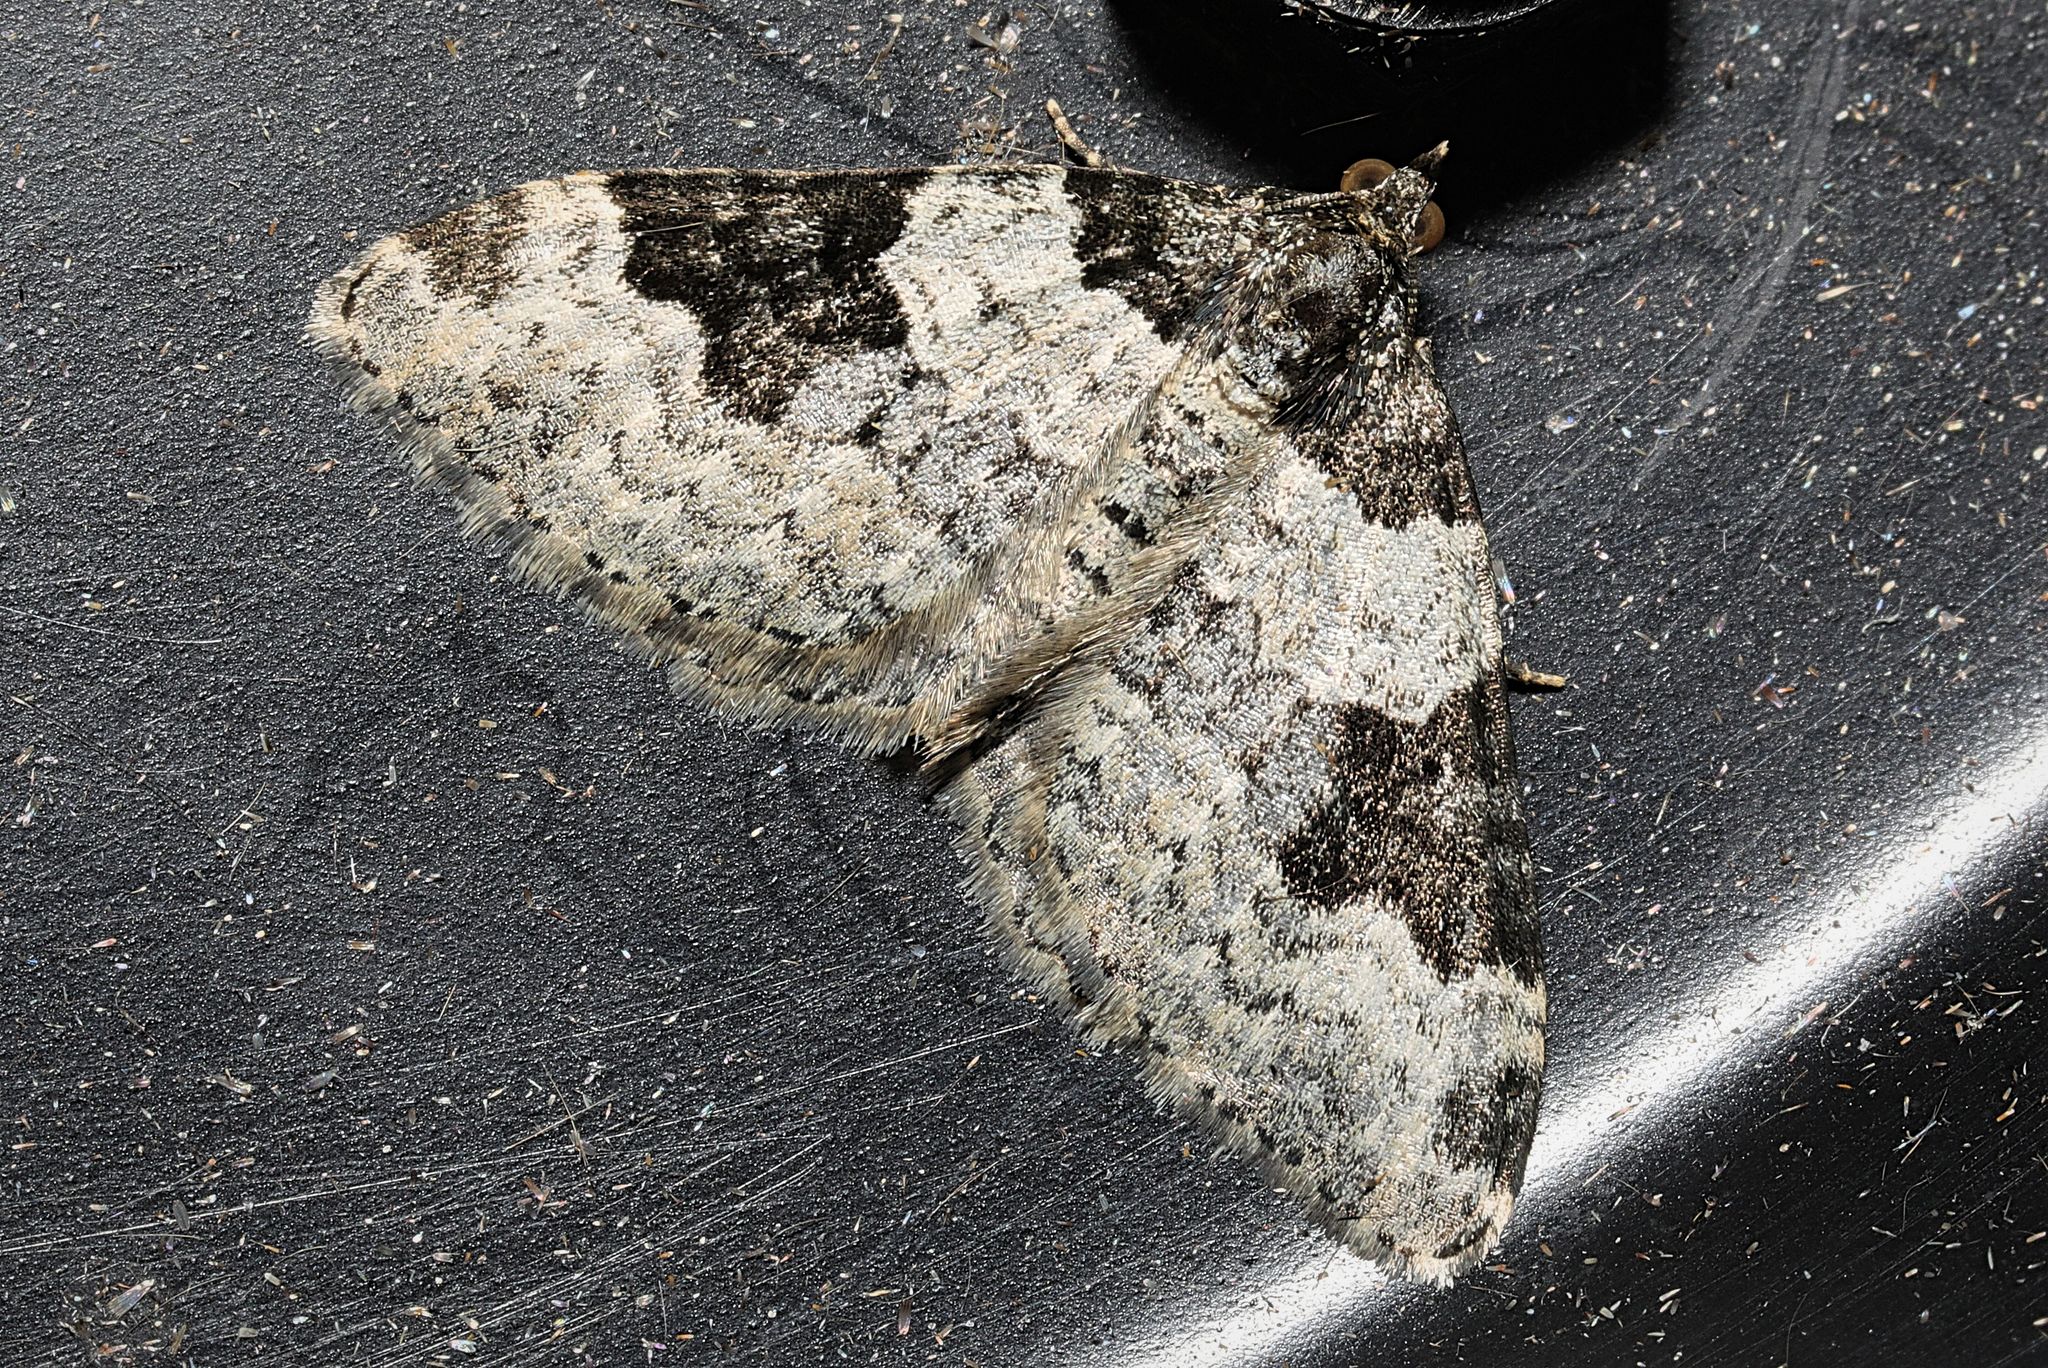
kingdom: Animalia
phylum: Arthropoda
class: Insecta
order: Lepidoptera
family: Geometridae
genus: Xanthorhoe
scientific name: Xanthorhoe fluctuata
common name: Garden carpet
